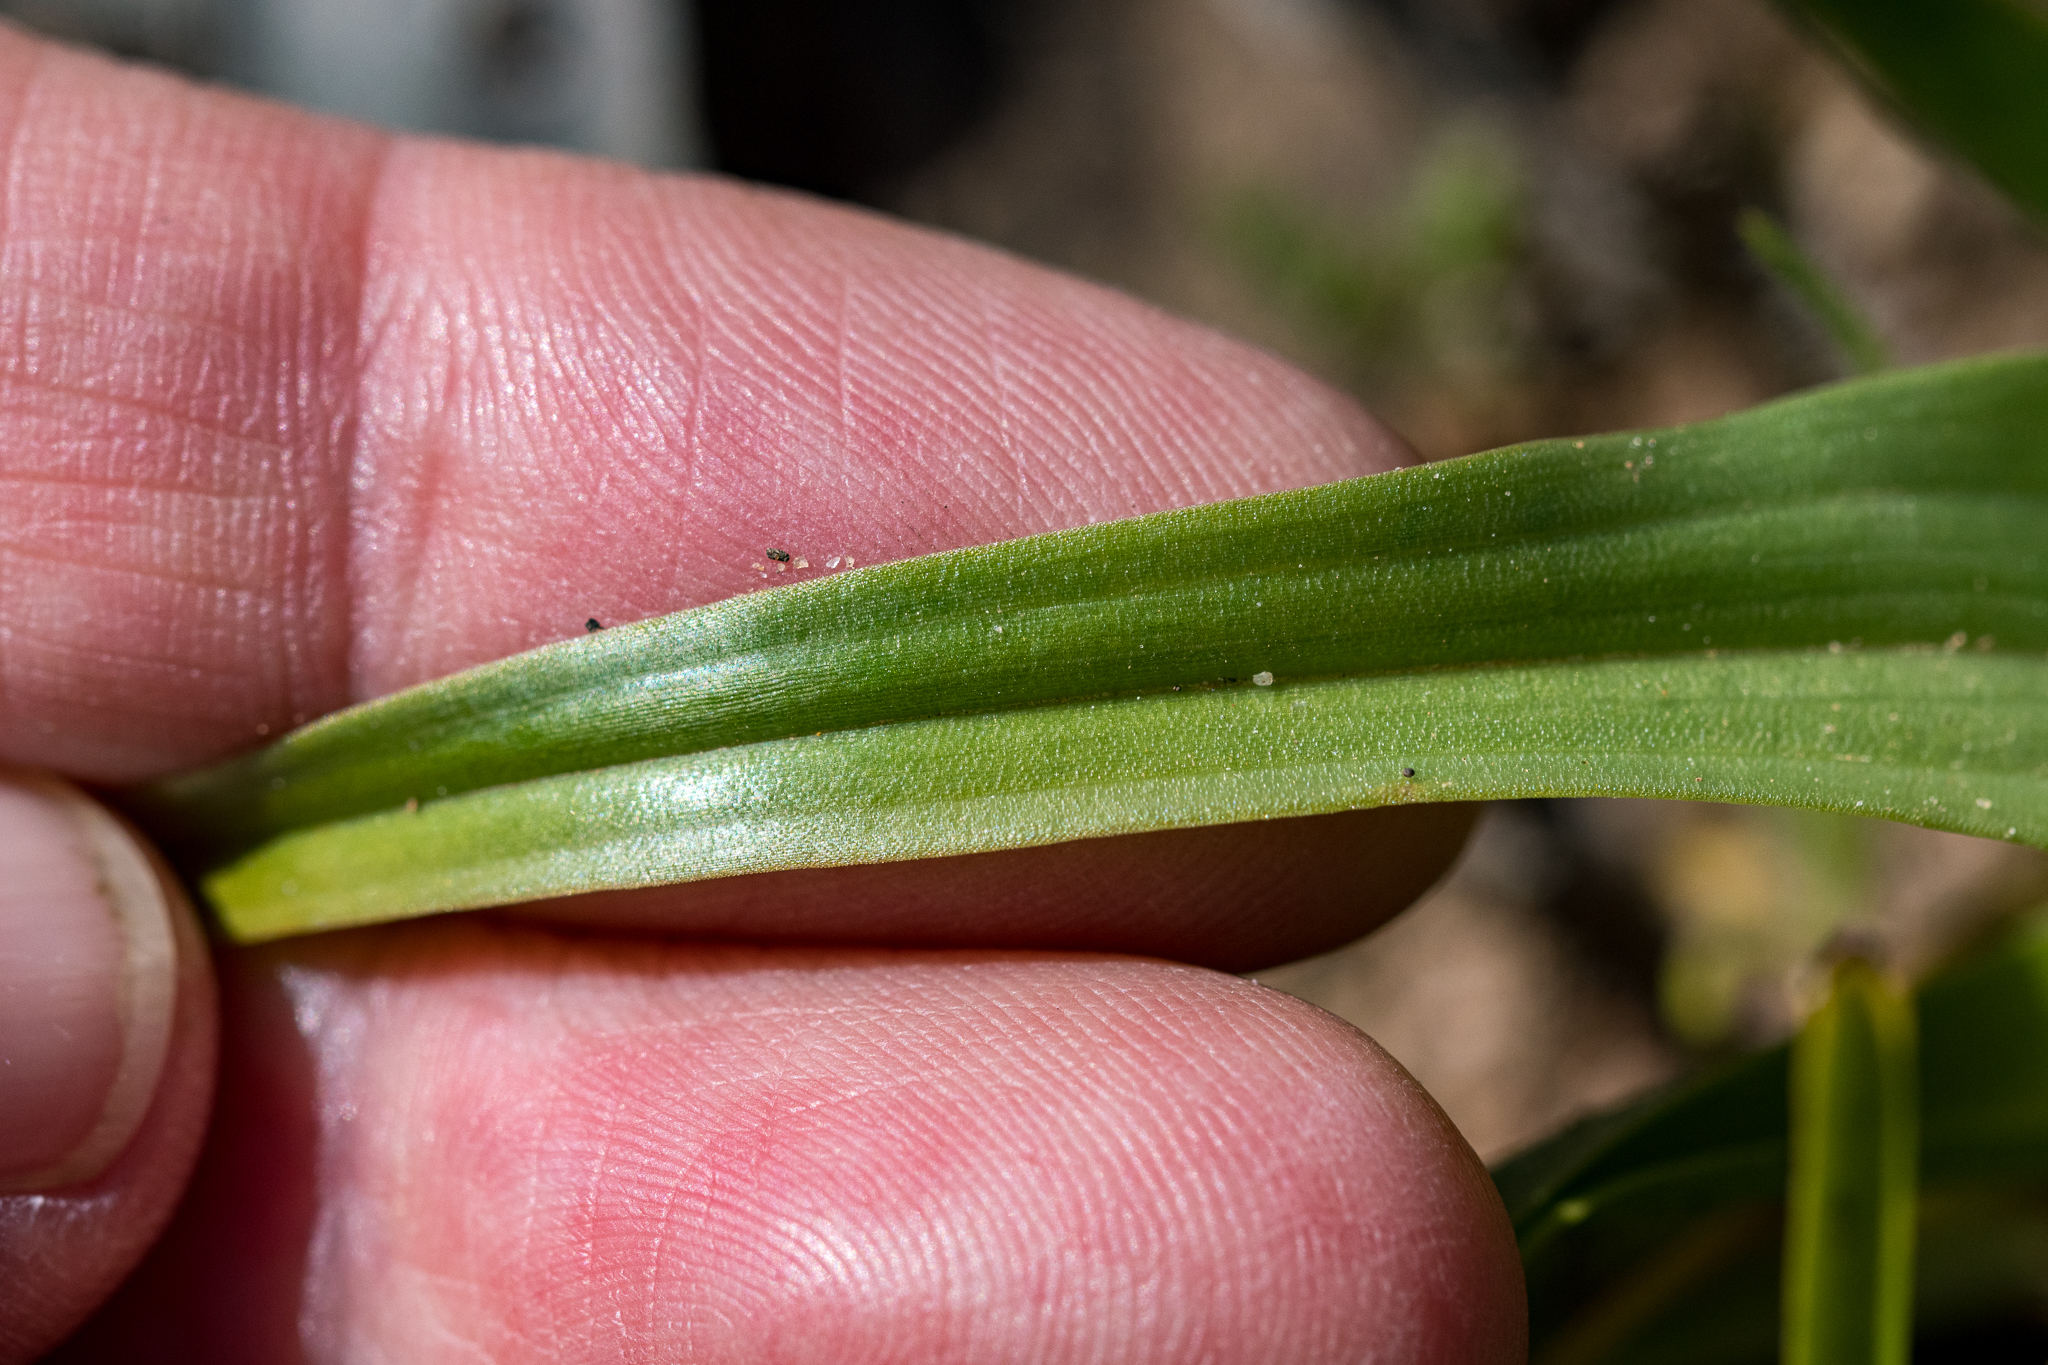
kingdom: Plantae
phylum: Tracheophyta
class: Liliopsida
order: Asparagales
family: Orchidaceae
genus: Corycium
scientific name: Corycium orobanchoides
